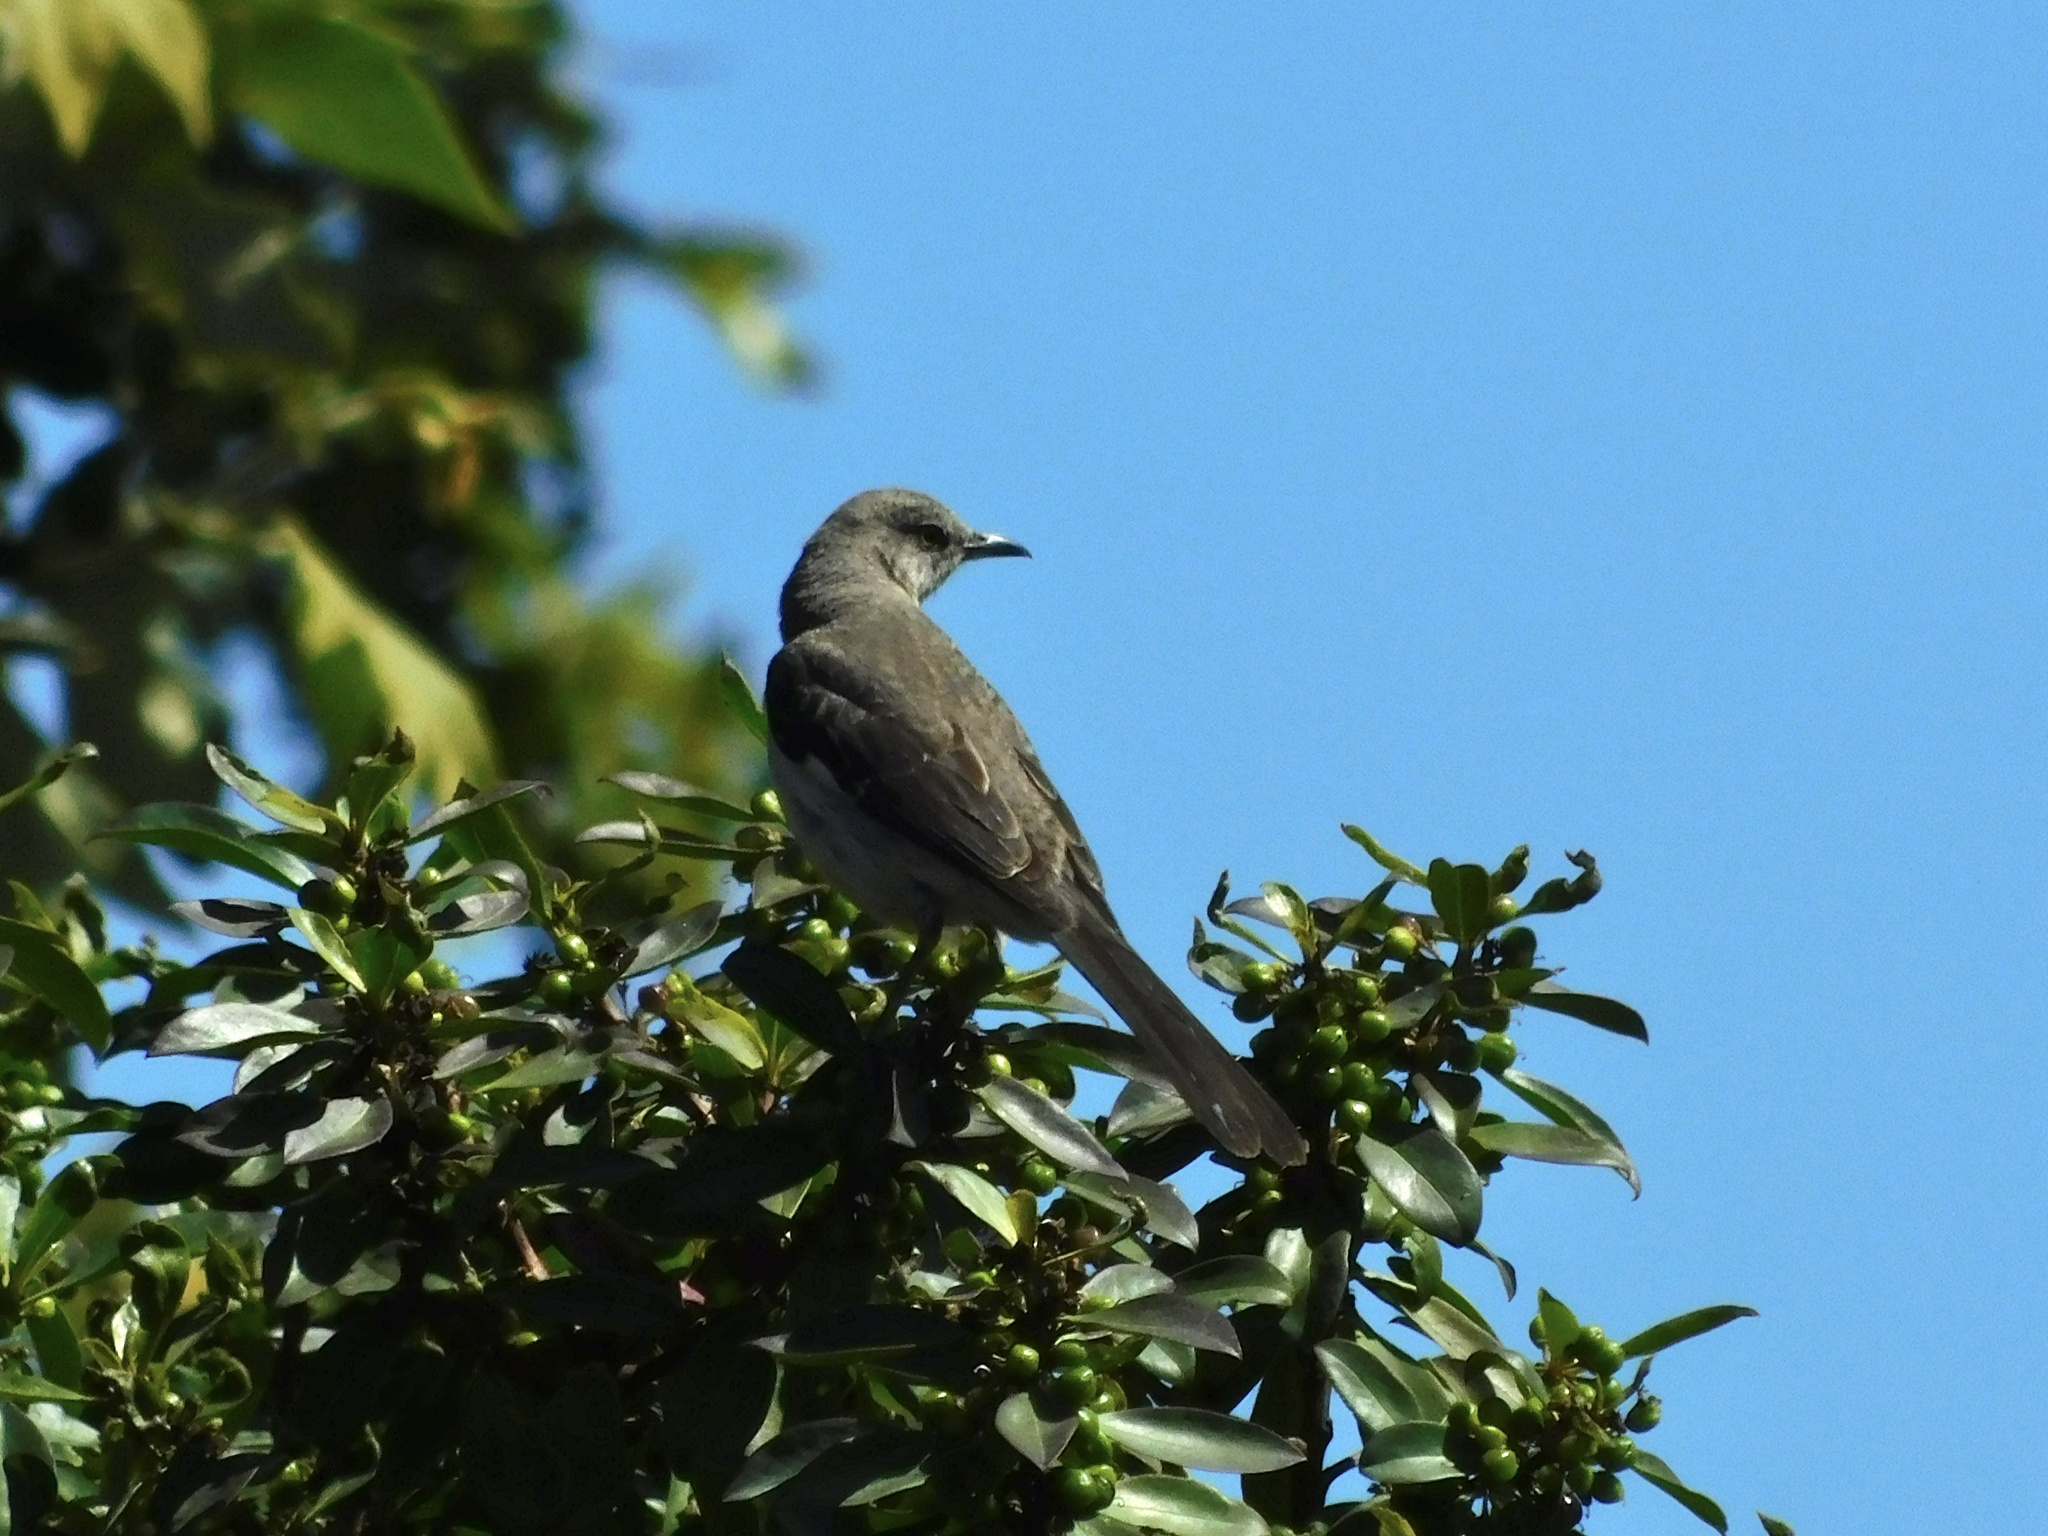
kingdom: Animalia
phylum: Chordata
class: Aves
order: Passeriformes
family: Mimidae
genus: Mimus
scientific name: Mimus polyglottos
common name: Northern mockingbird
